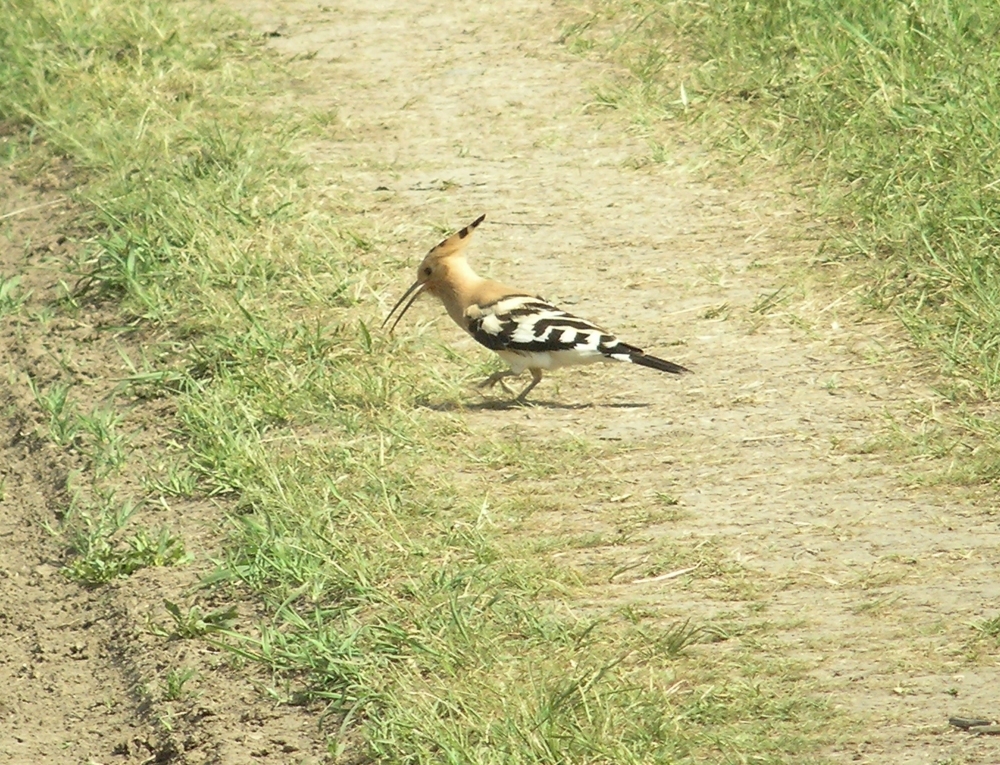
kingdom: Animalia
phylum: Chordata
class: Aves
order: Bucerotiformes
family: Upupidae
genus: Upupa
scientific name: Upupa epops
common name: Eurasian hoopoe
